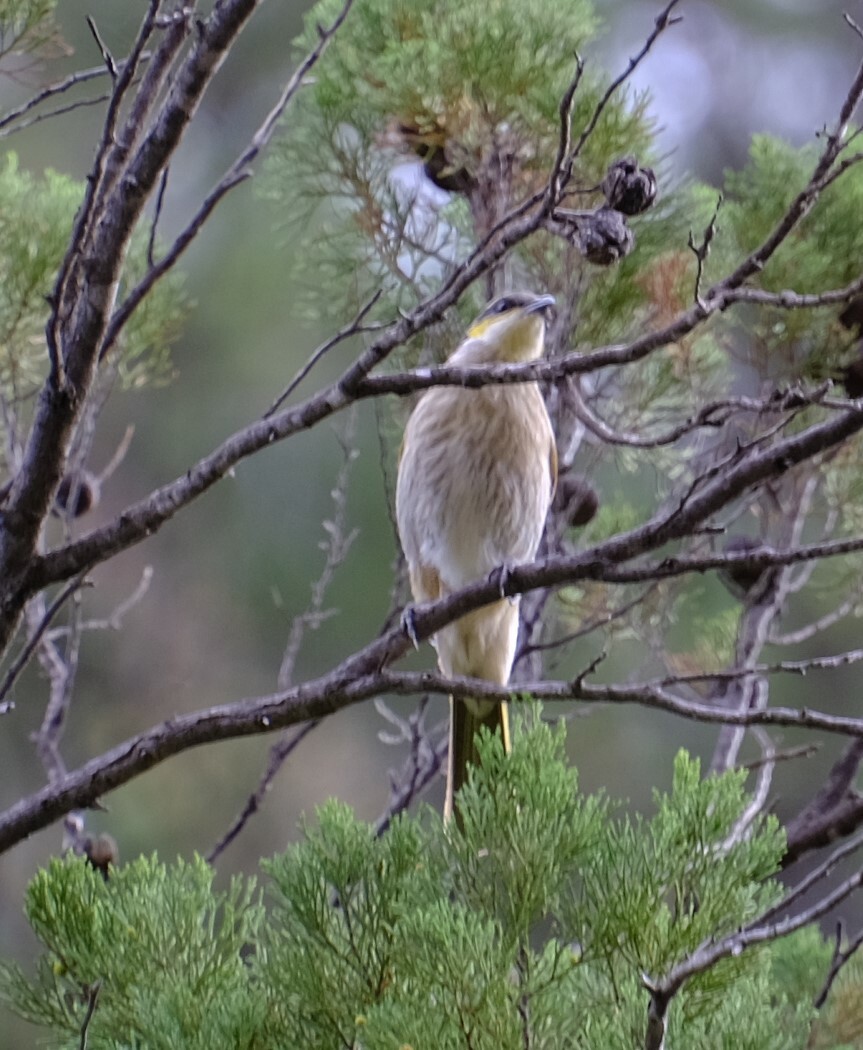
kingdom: Animalia
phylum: Chordata
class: Aves
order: Passeriformes
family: Meliphagidae
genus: Gavicalis
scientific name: Gavicalis virescens
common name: Singing honeyeater
